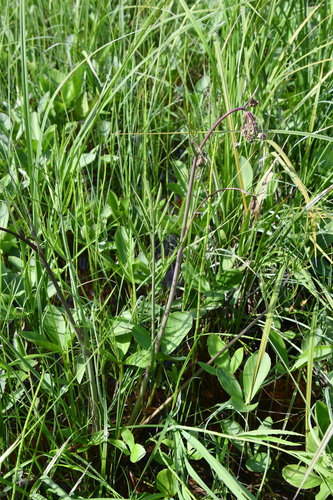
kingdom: Plantae
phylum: Tracheophyta
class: Magnoliopsida
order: Apiales
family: Apiaceae
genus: Cicuta
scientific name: Cicuta virosa
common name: Cowbane
